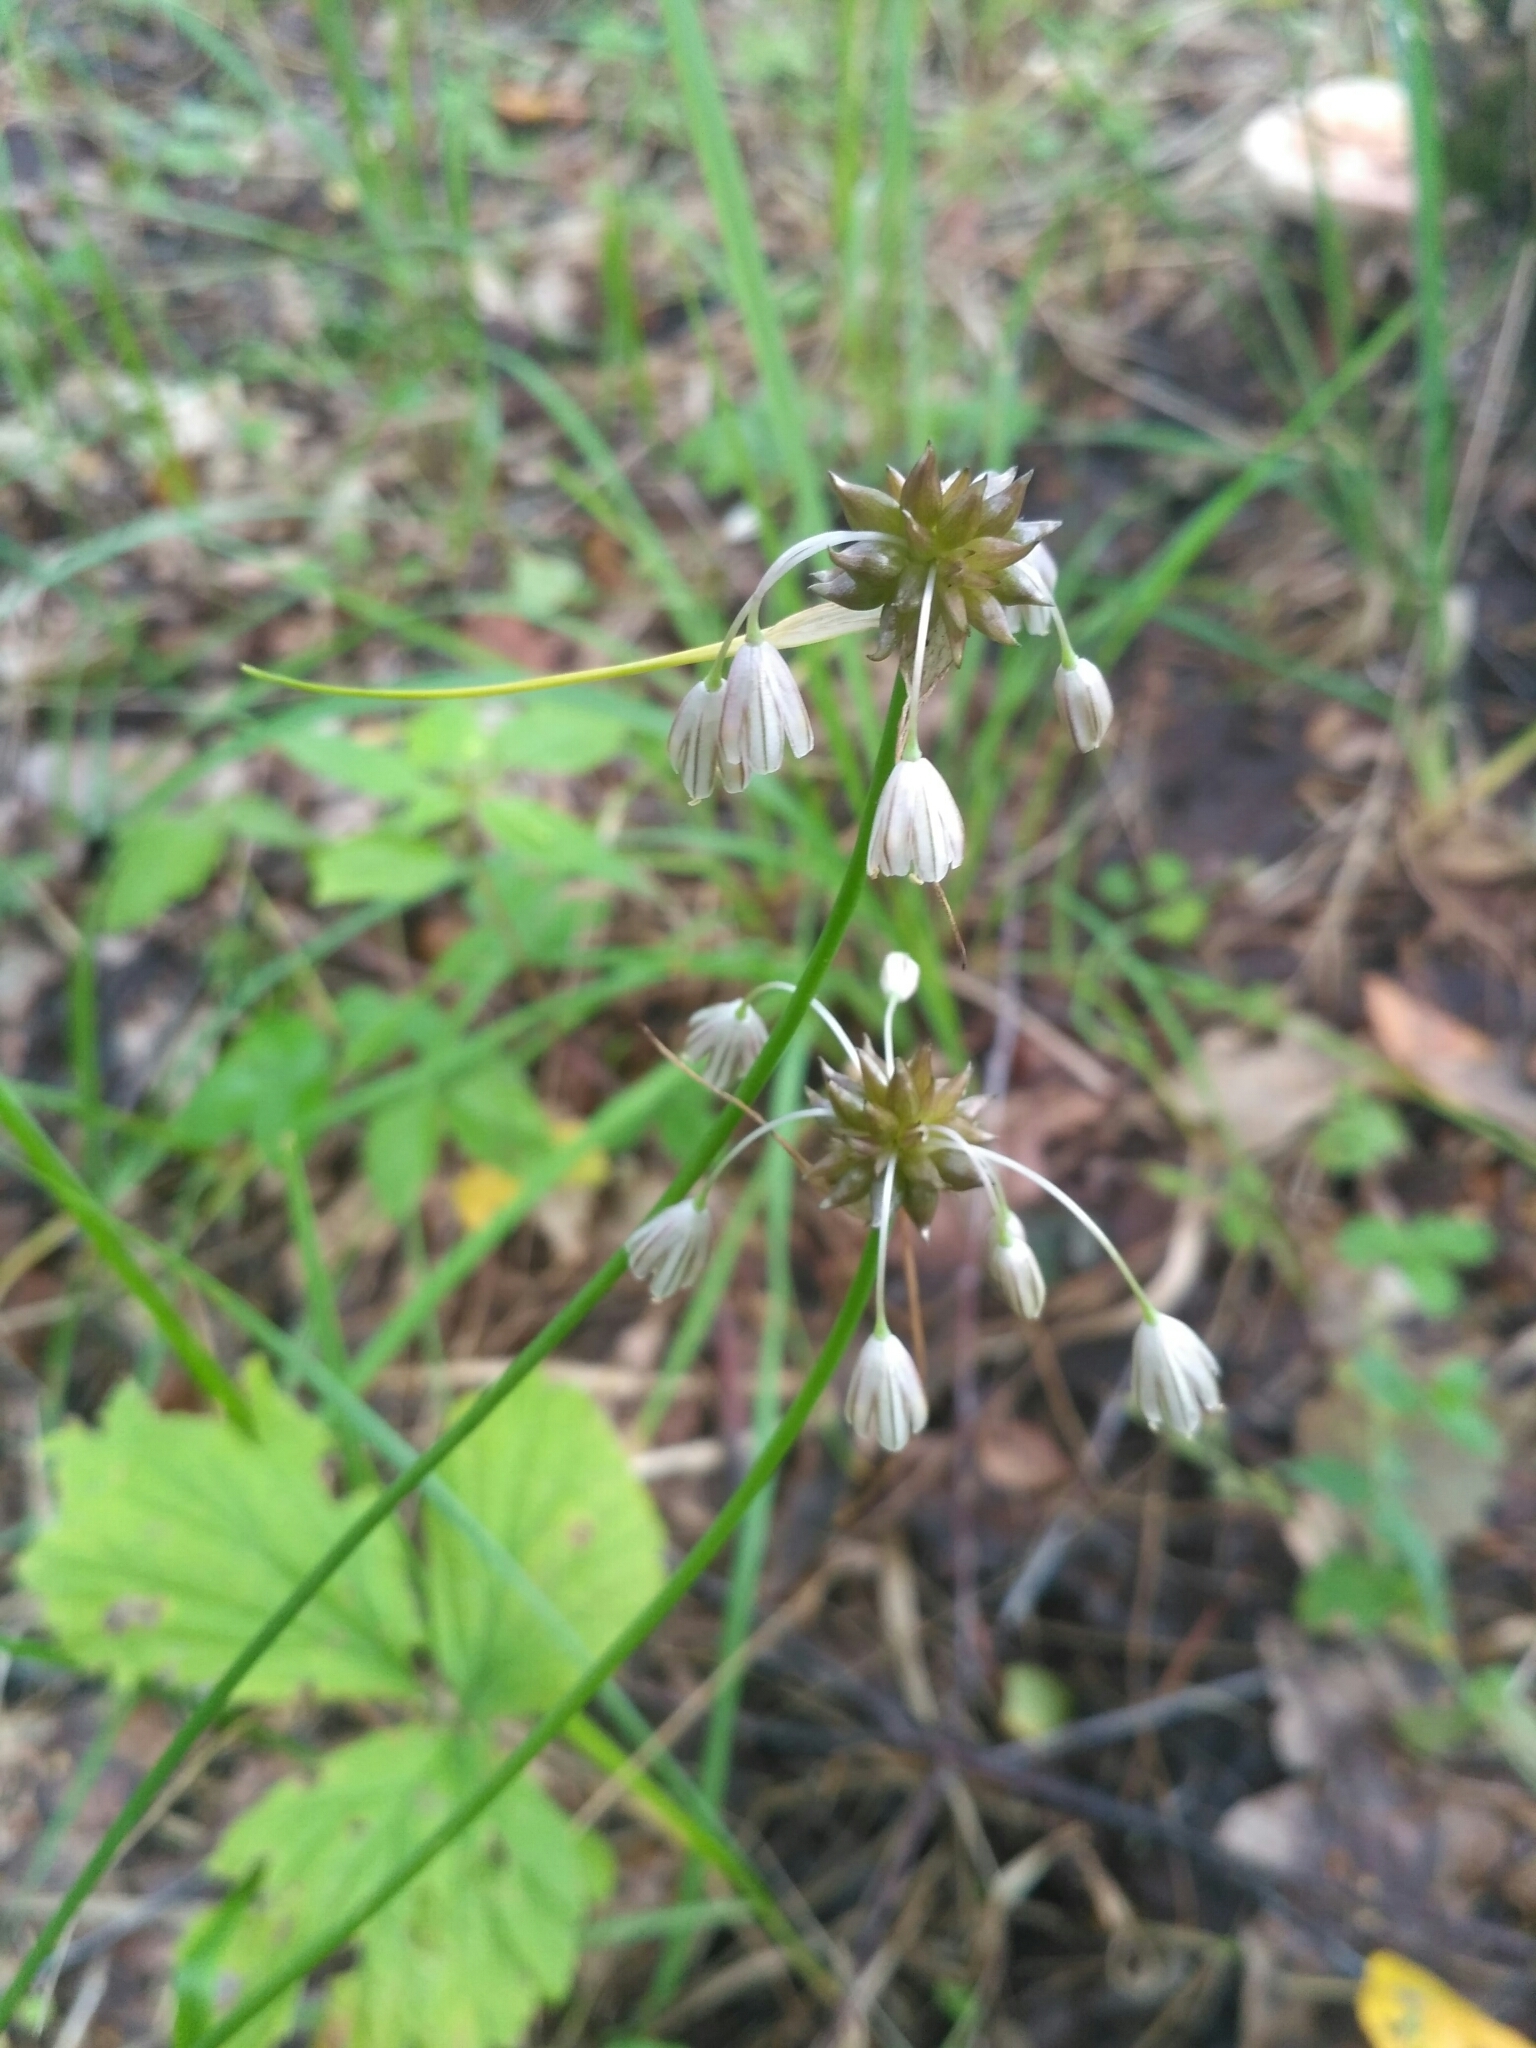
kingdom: Plantae
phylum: Tracheophyta
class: Liliopsida
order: Asparagales
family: Amaryllidaceae
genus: Allium
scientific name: Allium oleraceum
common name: Field garlic
